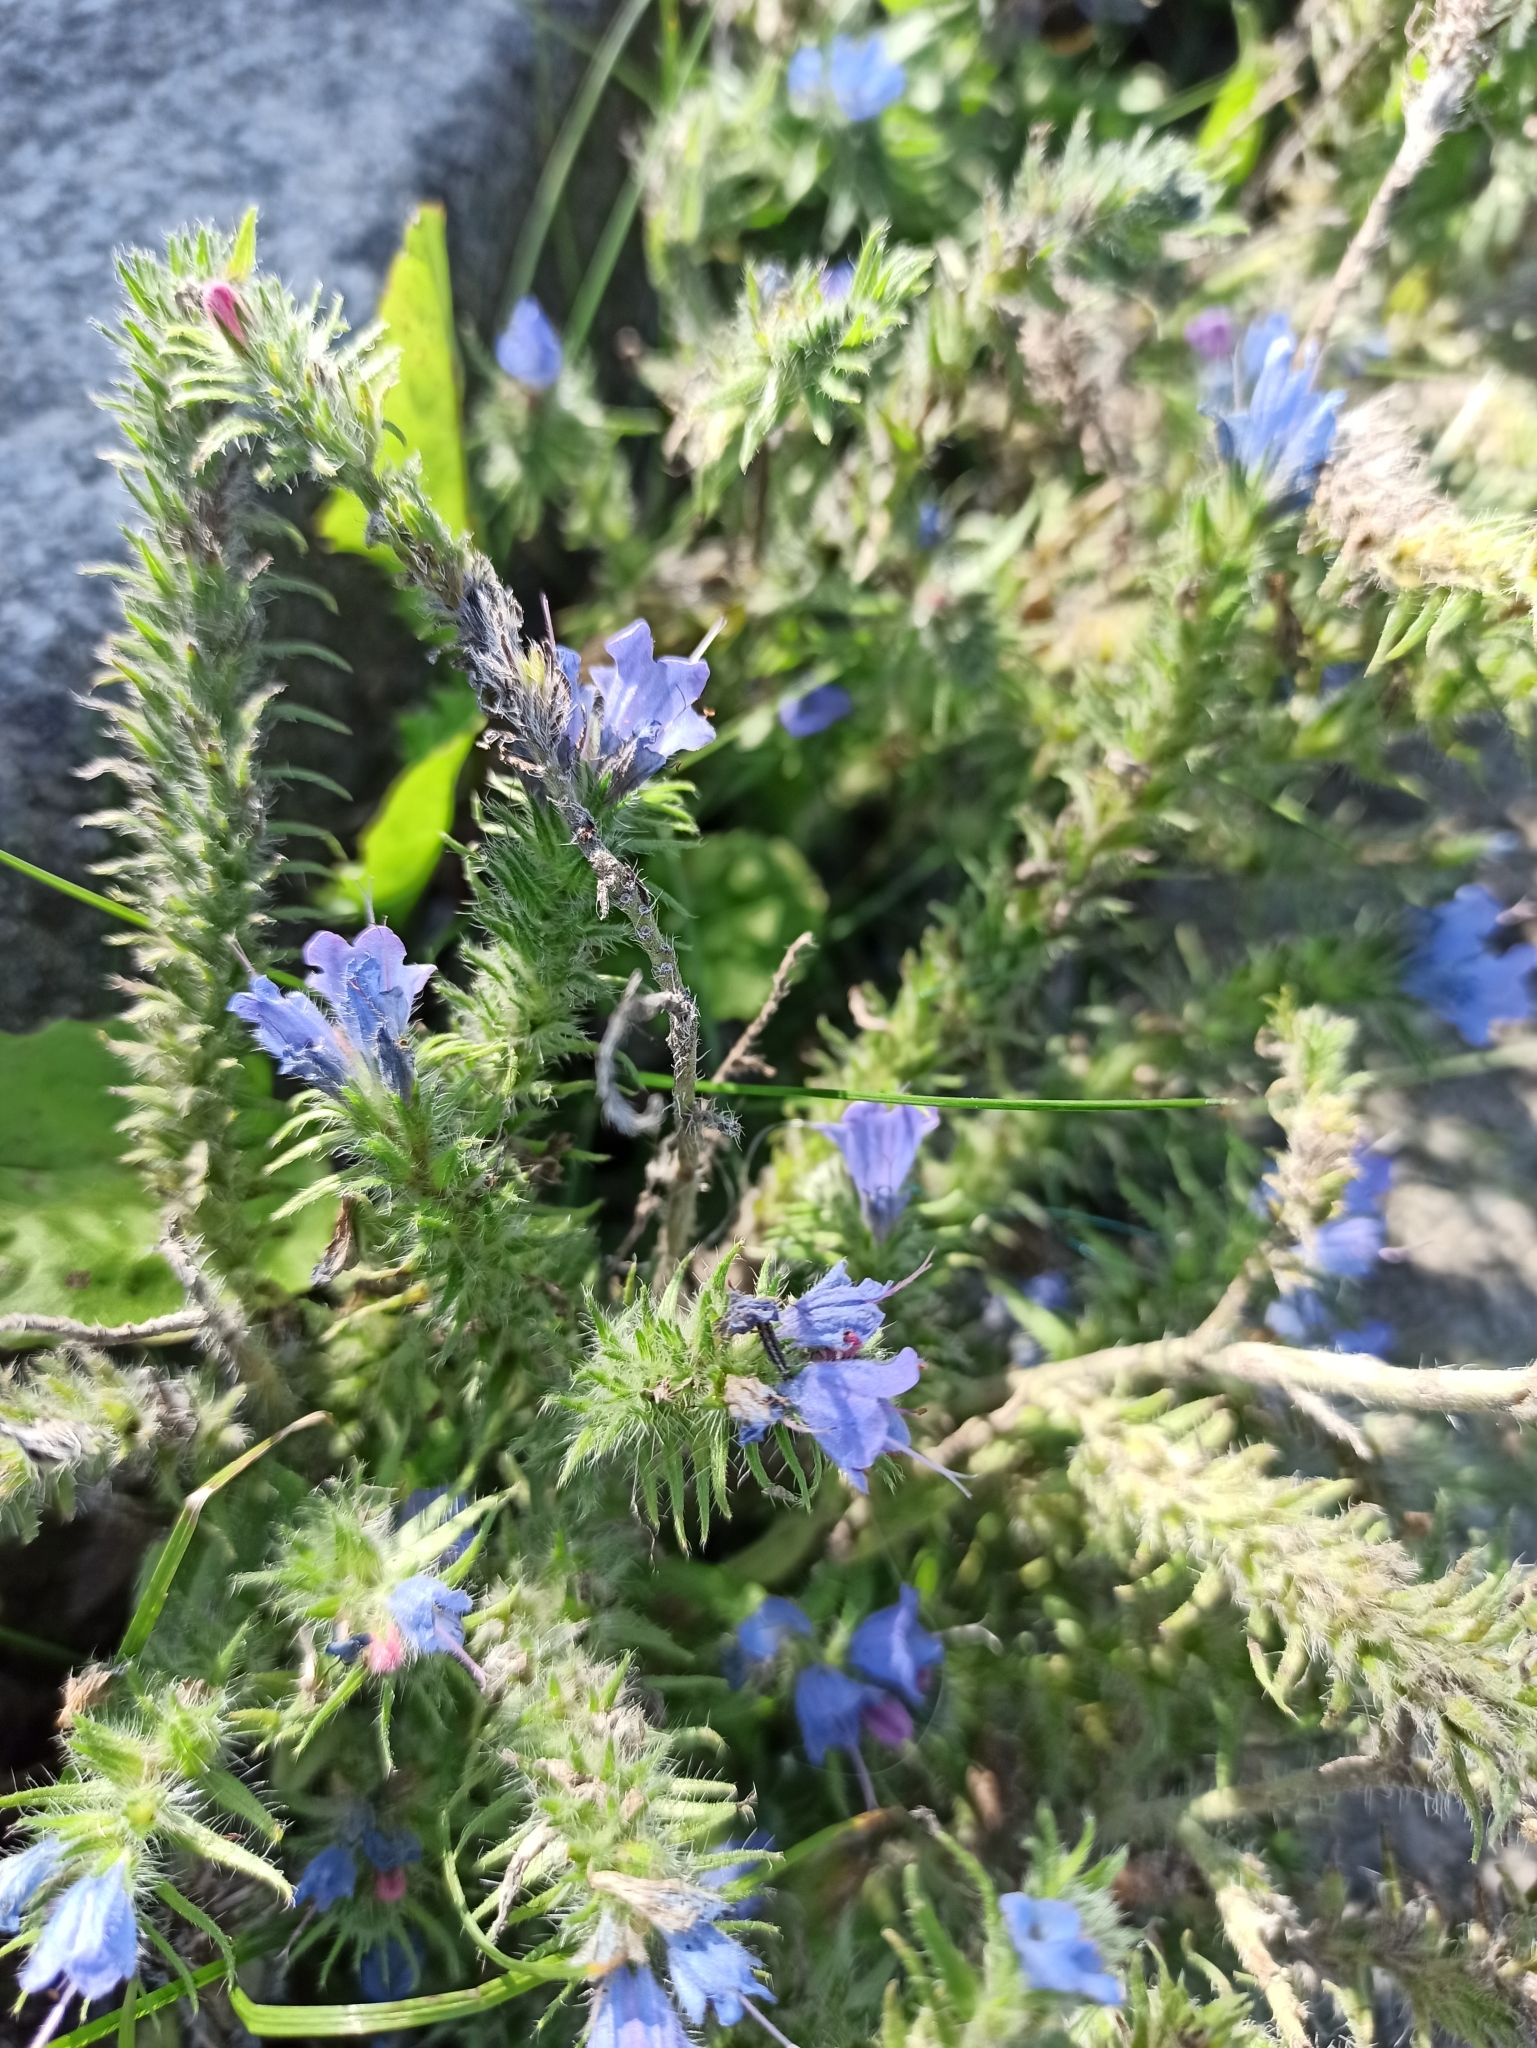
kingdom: Plantae
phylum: Tracheophyta
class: Magnoliopsida
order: Boraginales
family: Boraginaceae
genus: Echium
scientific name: Echium vulgare
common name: Common viper's bugloss
